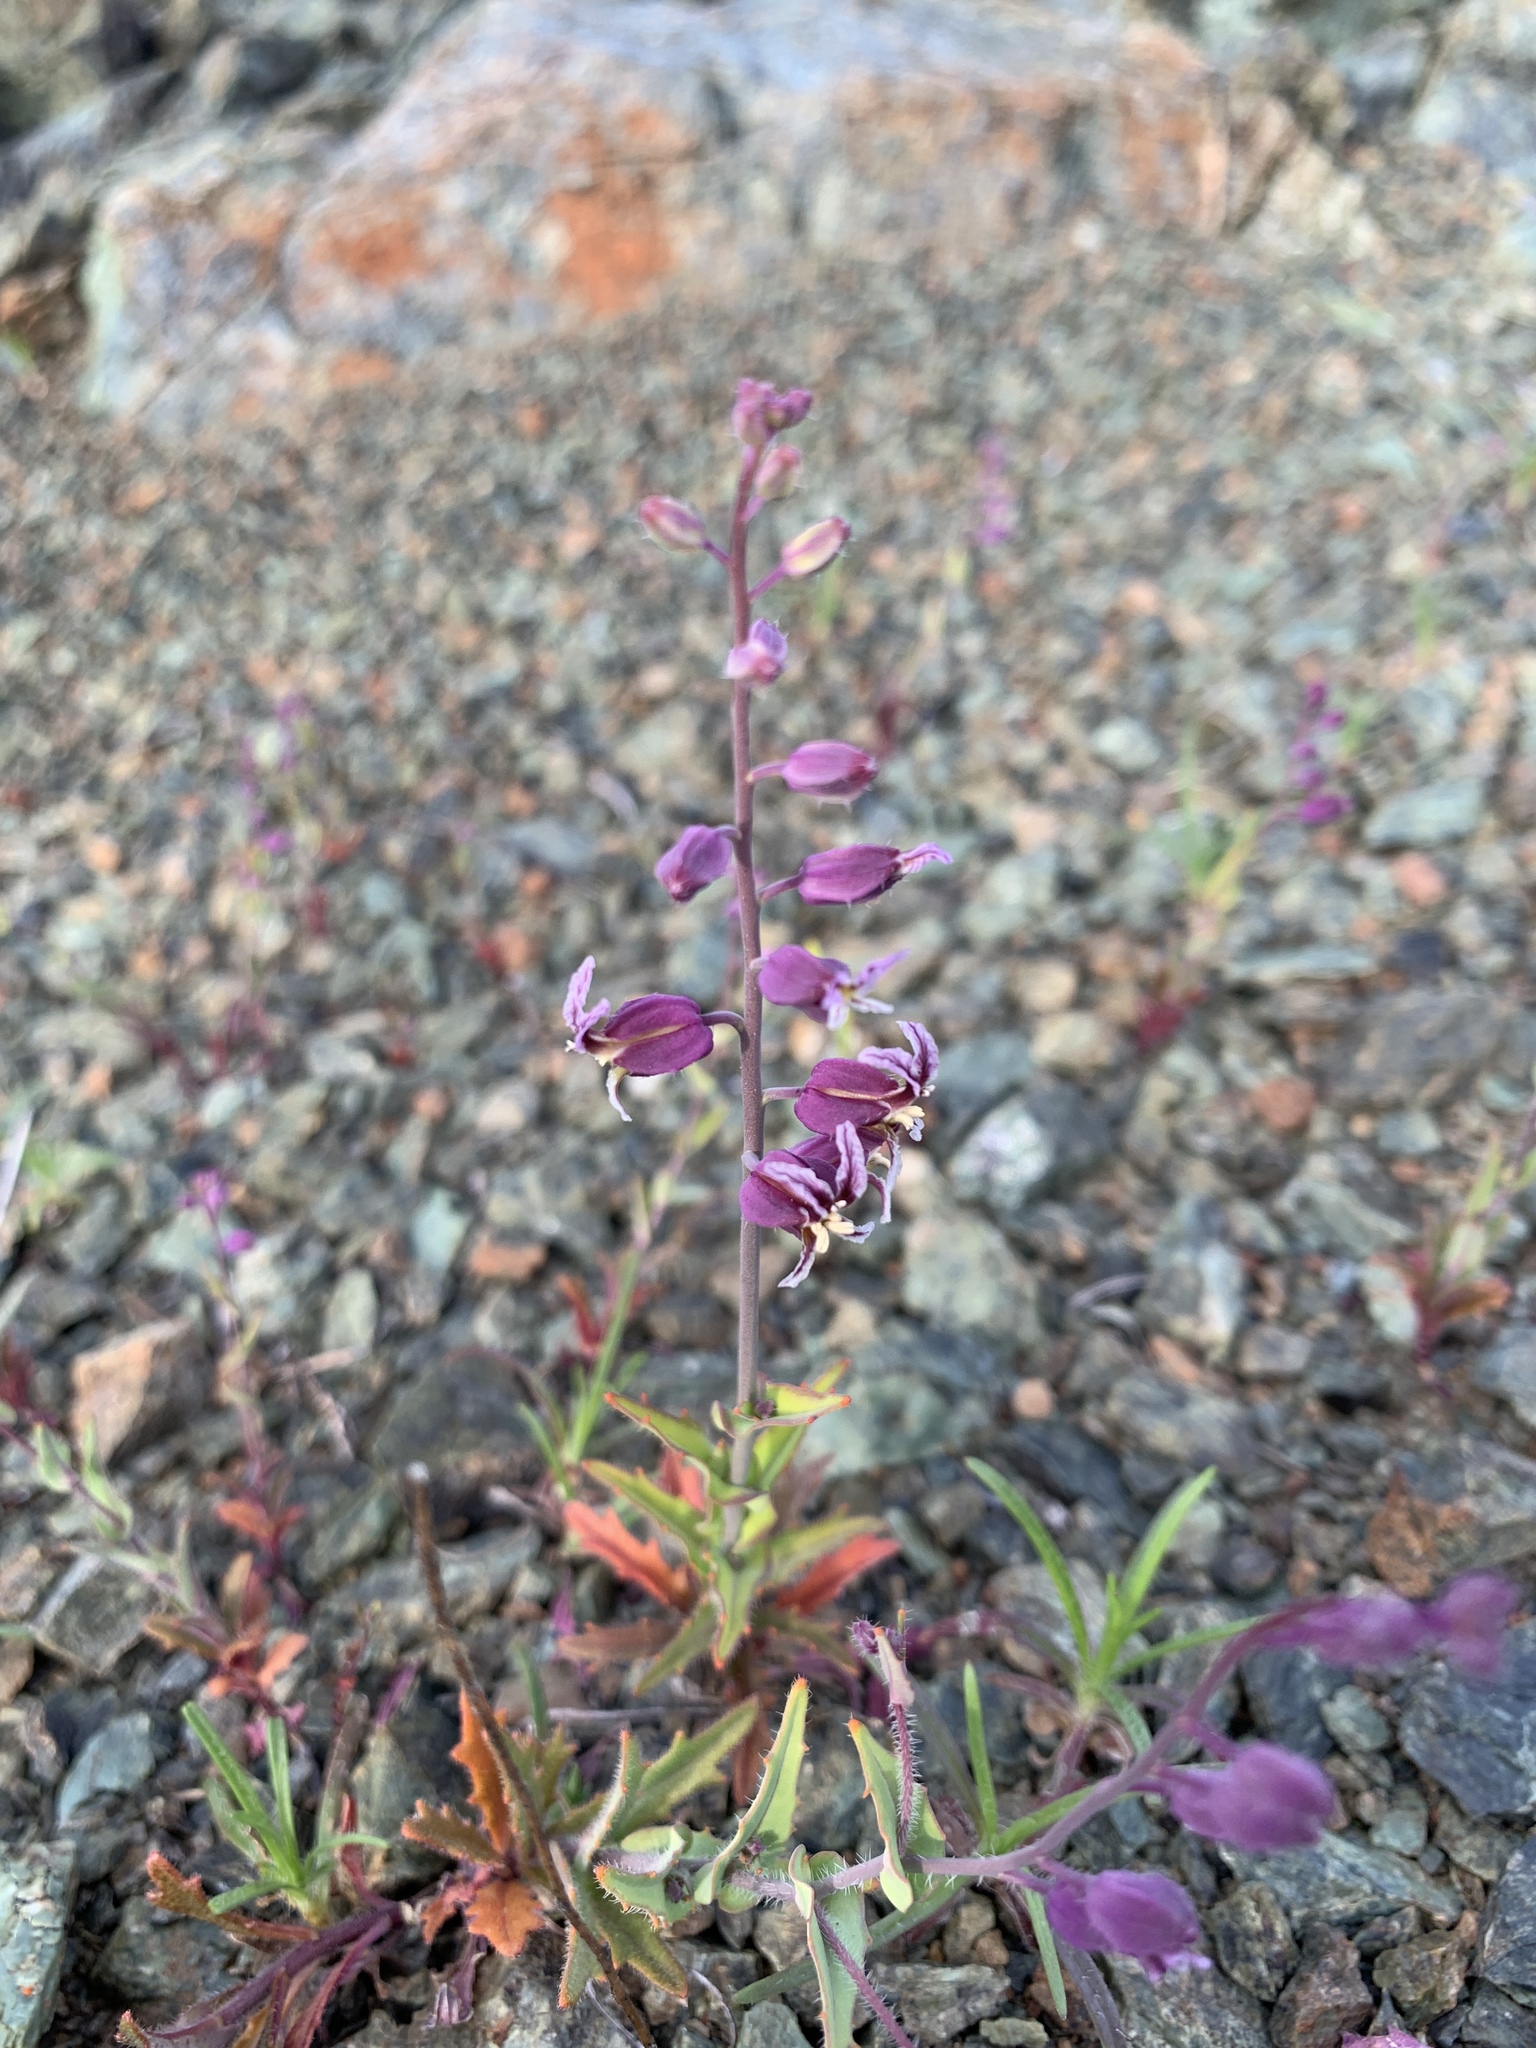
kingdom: Plantae
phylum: Tracheophyta
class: Magnoliopsida
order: Brassicales
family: Brassicaceae
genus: Streptanthus
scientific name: Streptanthus glandulosus
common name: Jewel-flower
